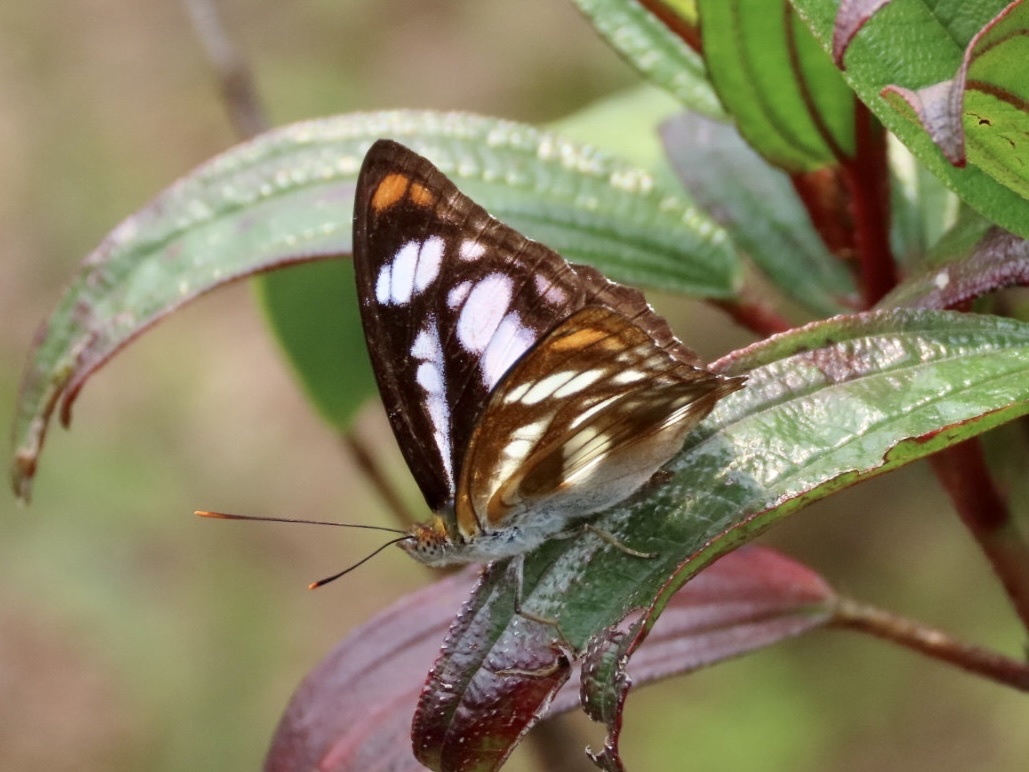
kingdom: Animalia
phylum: Arthropoda
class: Insecta
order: Lepidoptera
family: Nymphalidae
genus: Parathyma
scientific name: Parathyma nefte
